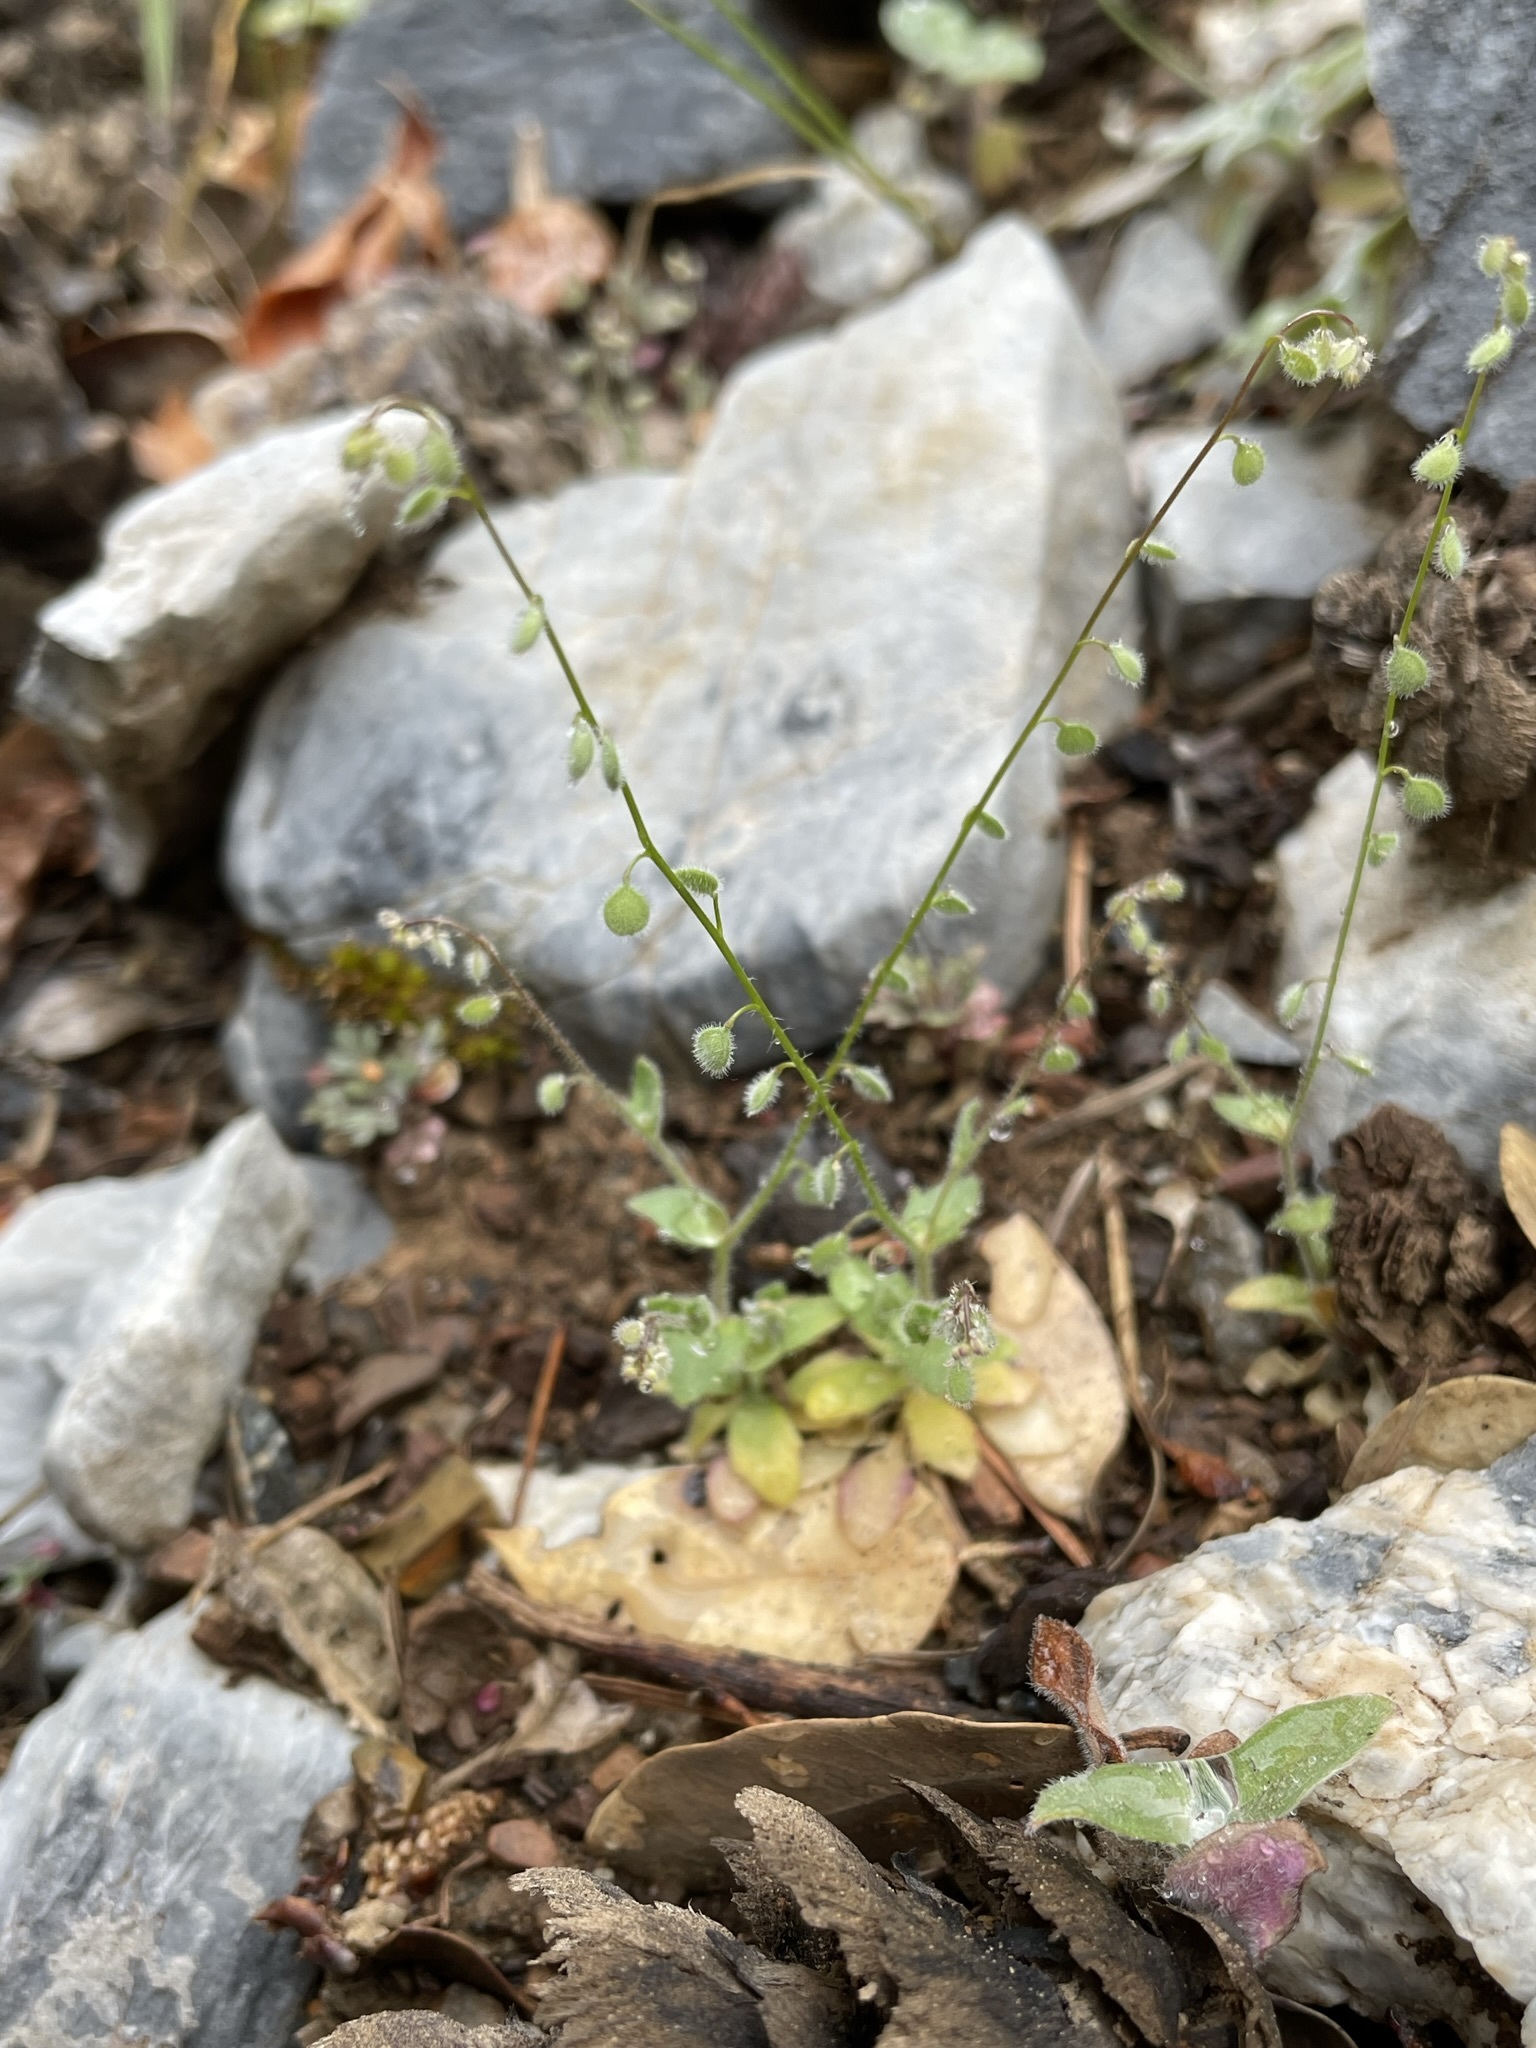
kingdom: Plantae
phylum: Tracheophyta
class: Magnoliopsida
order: Brassicales
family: Brassicaceae
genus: Athysanus
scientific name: Athysanus pusillus
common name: Common sandweed
